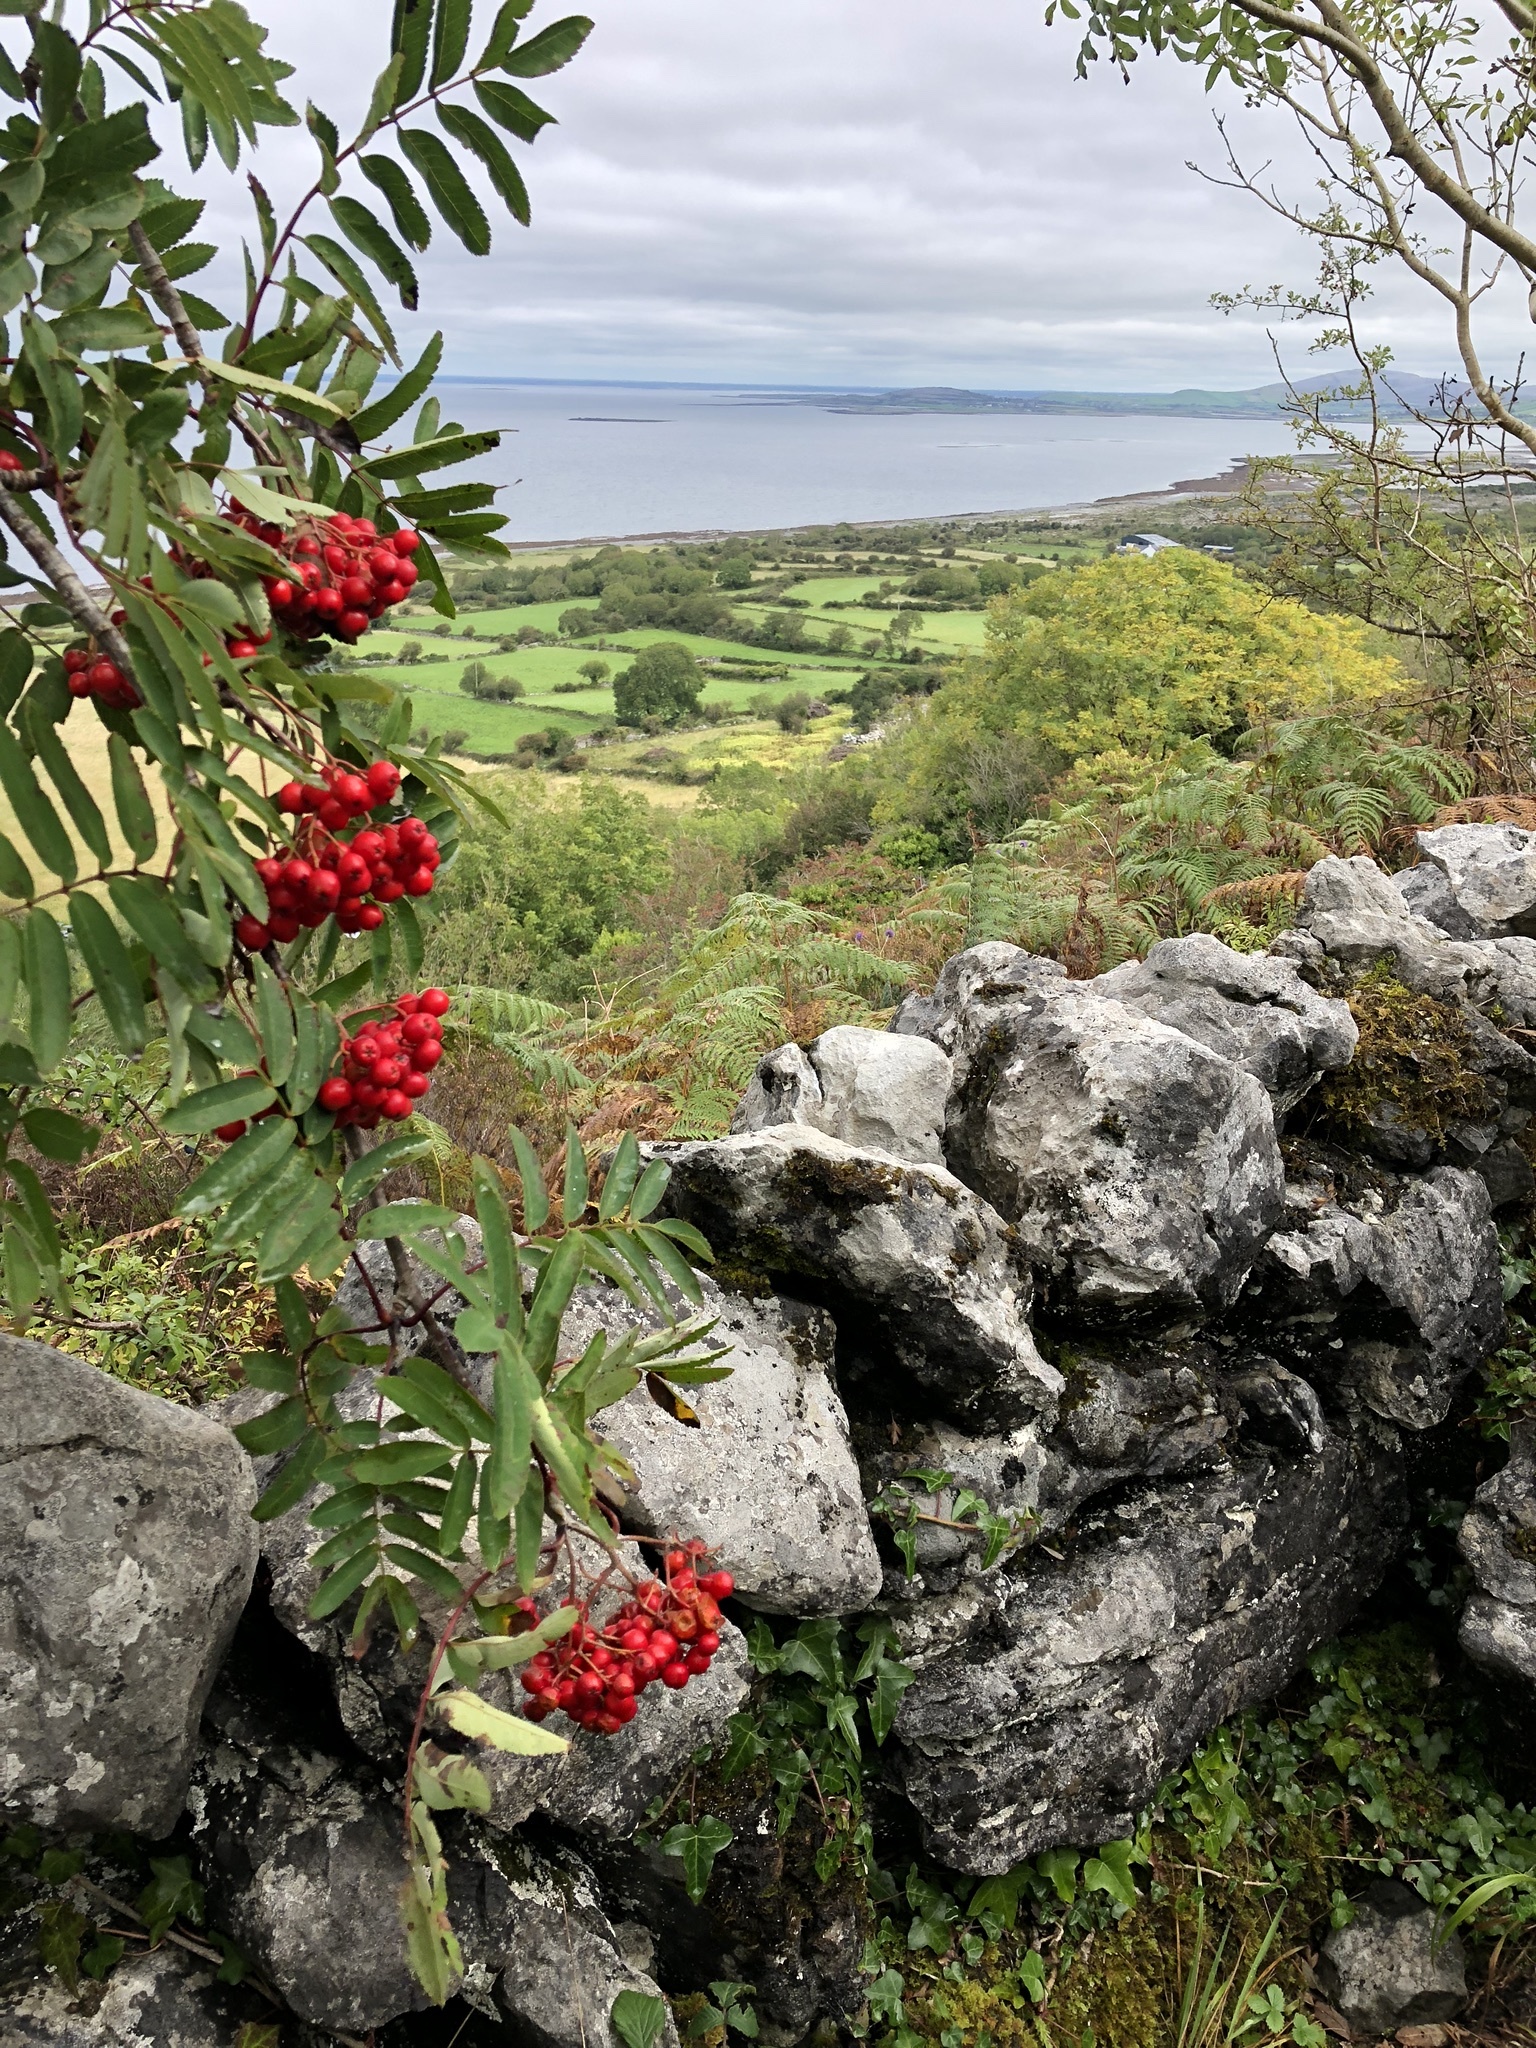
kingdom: Plantae
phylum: Tracheophyta
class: Magnoliopsida
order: Rosales
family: Rosaceae
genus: Sorbus
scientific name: Sorbus aucuparia
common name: Rowan
